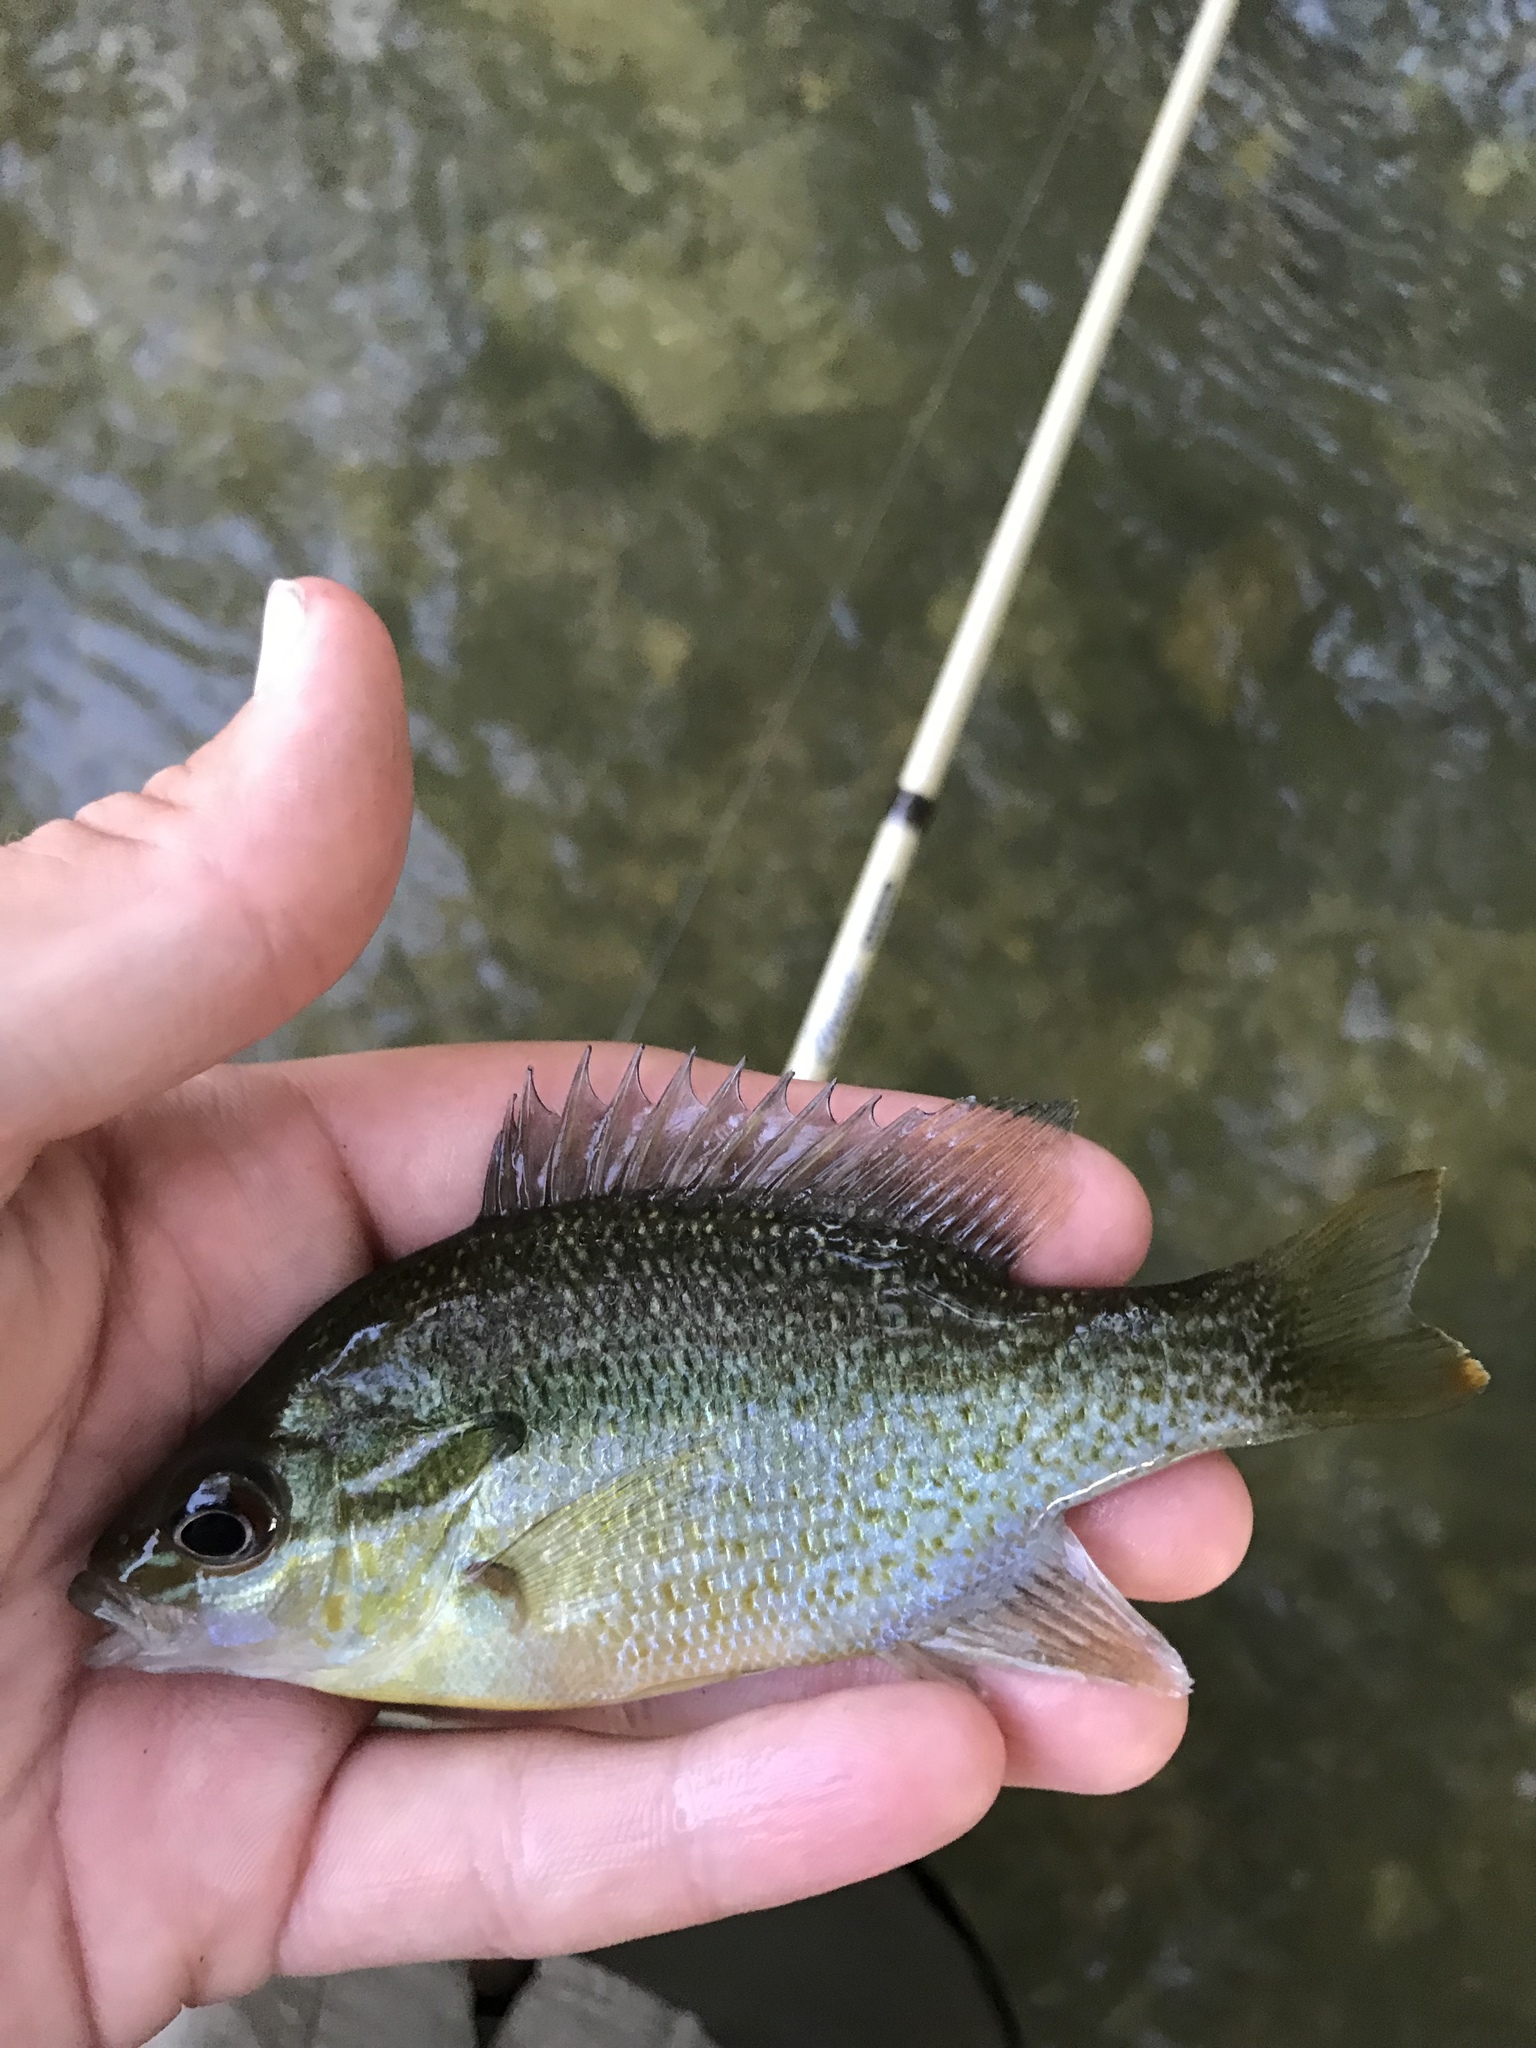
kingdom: Animalia
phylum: Chordata
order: Perciformes
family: Centrarchidae
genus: Lepomis
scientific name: Lepomis auritus
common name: Redbreast sunfish
